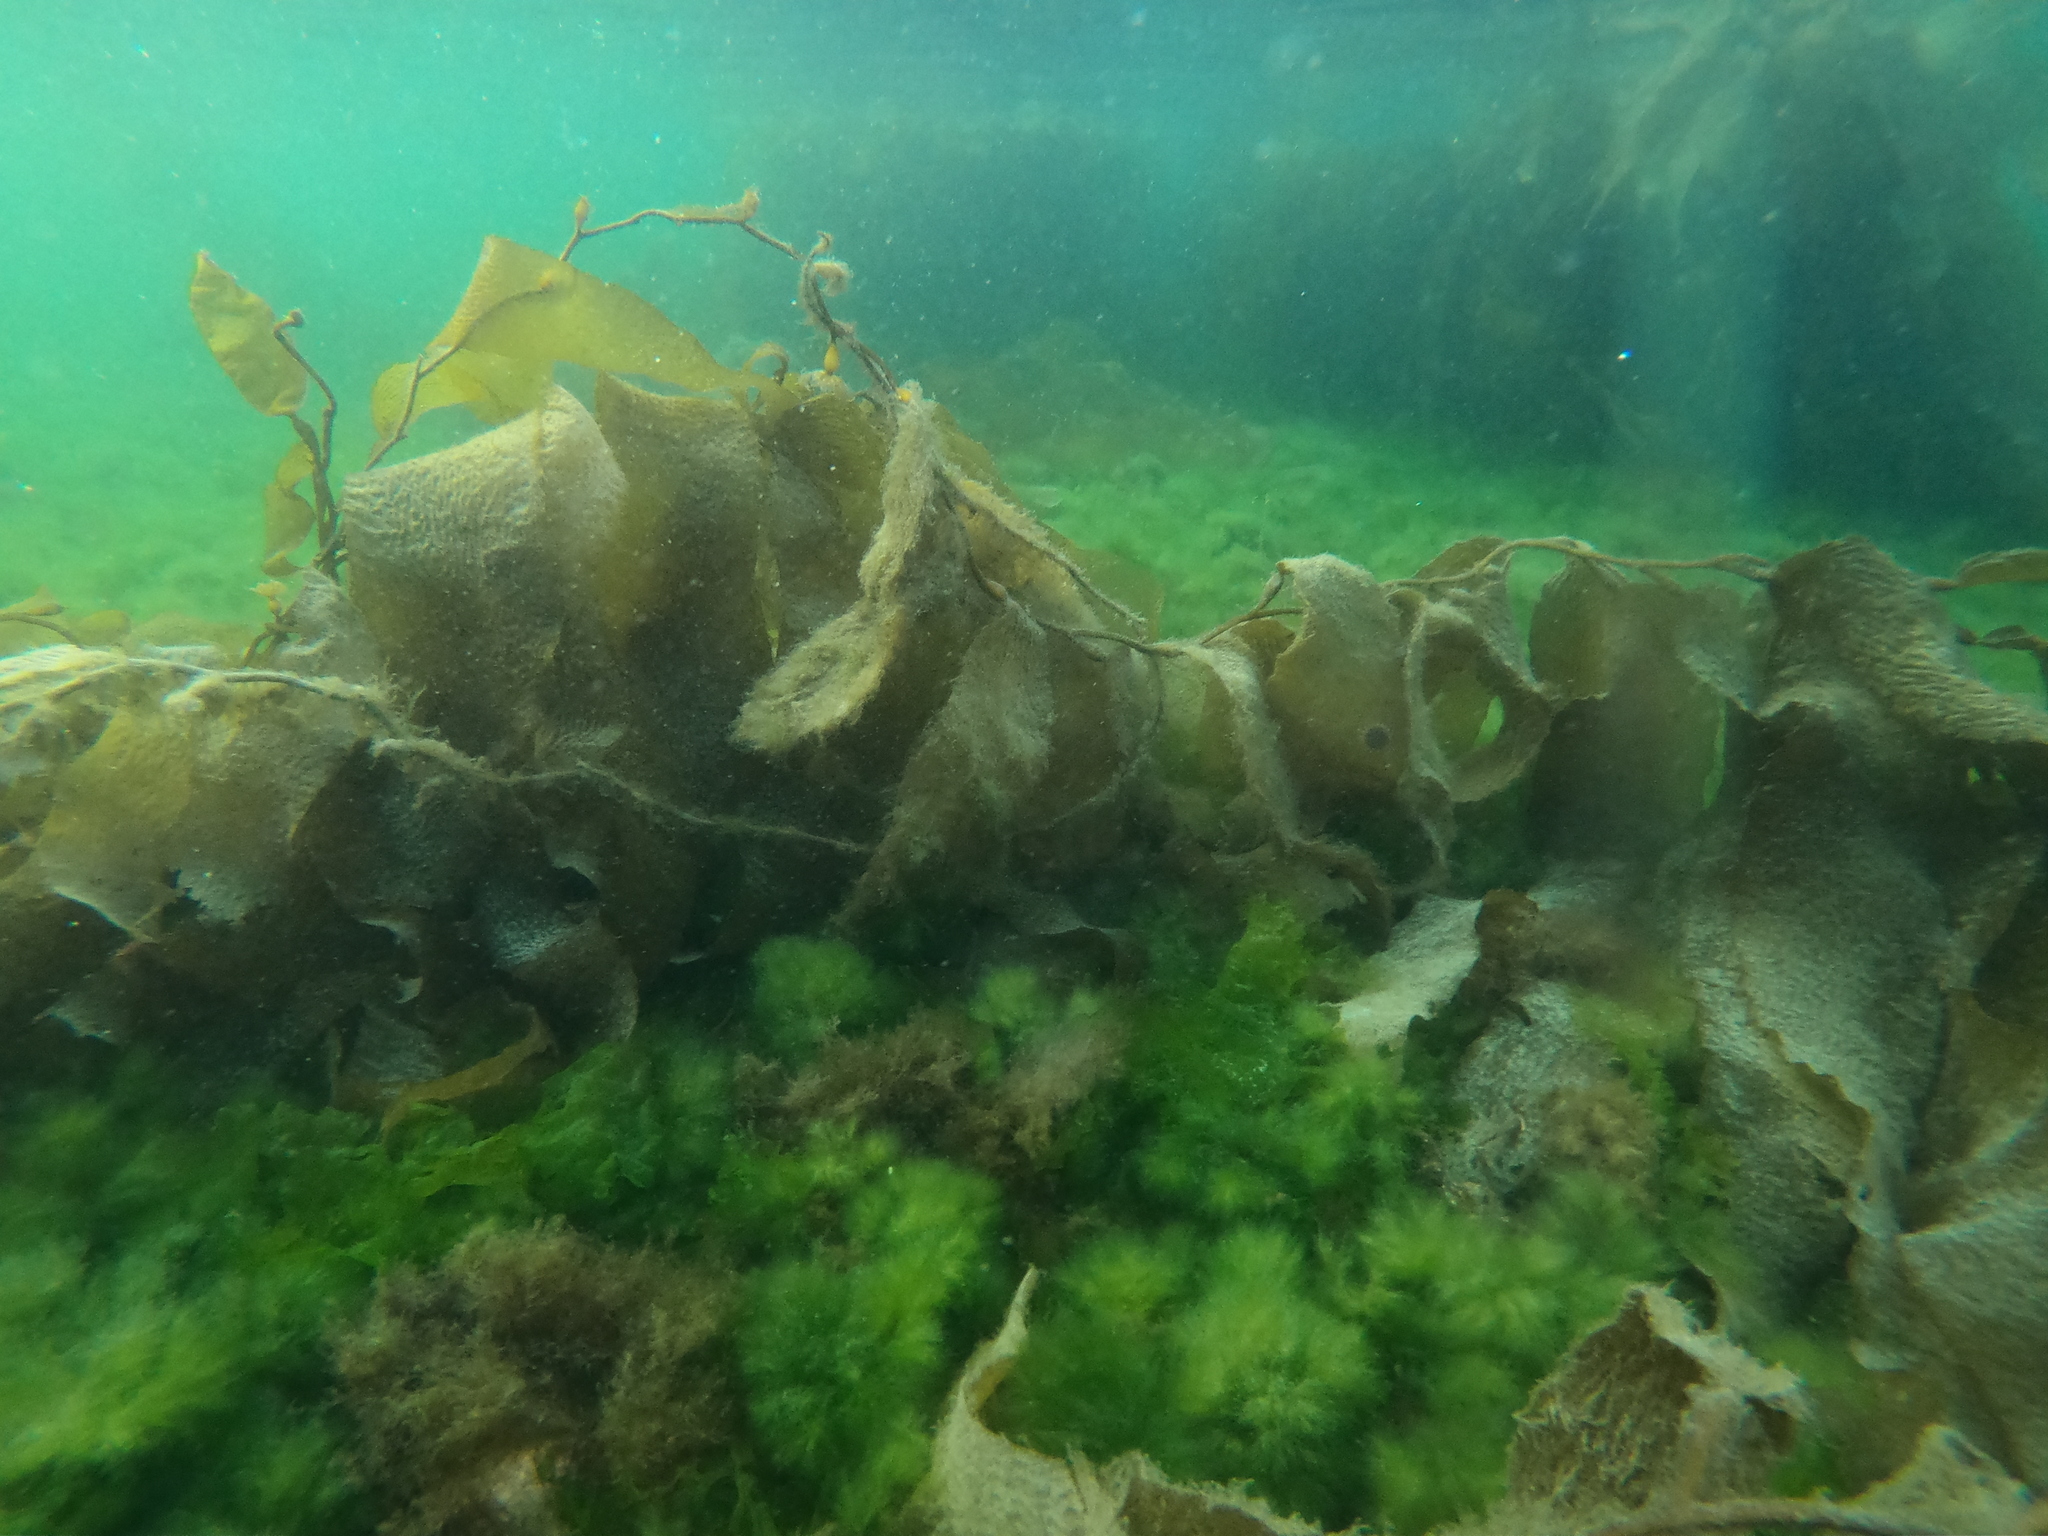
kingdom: Chromista
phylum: Ochrophyta
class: Phaeophyceae
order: Laminariales
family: Laminariaceae
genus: Macrocystis
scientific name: Macrocystis pyrifera
